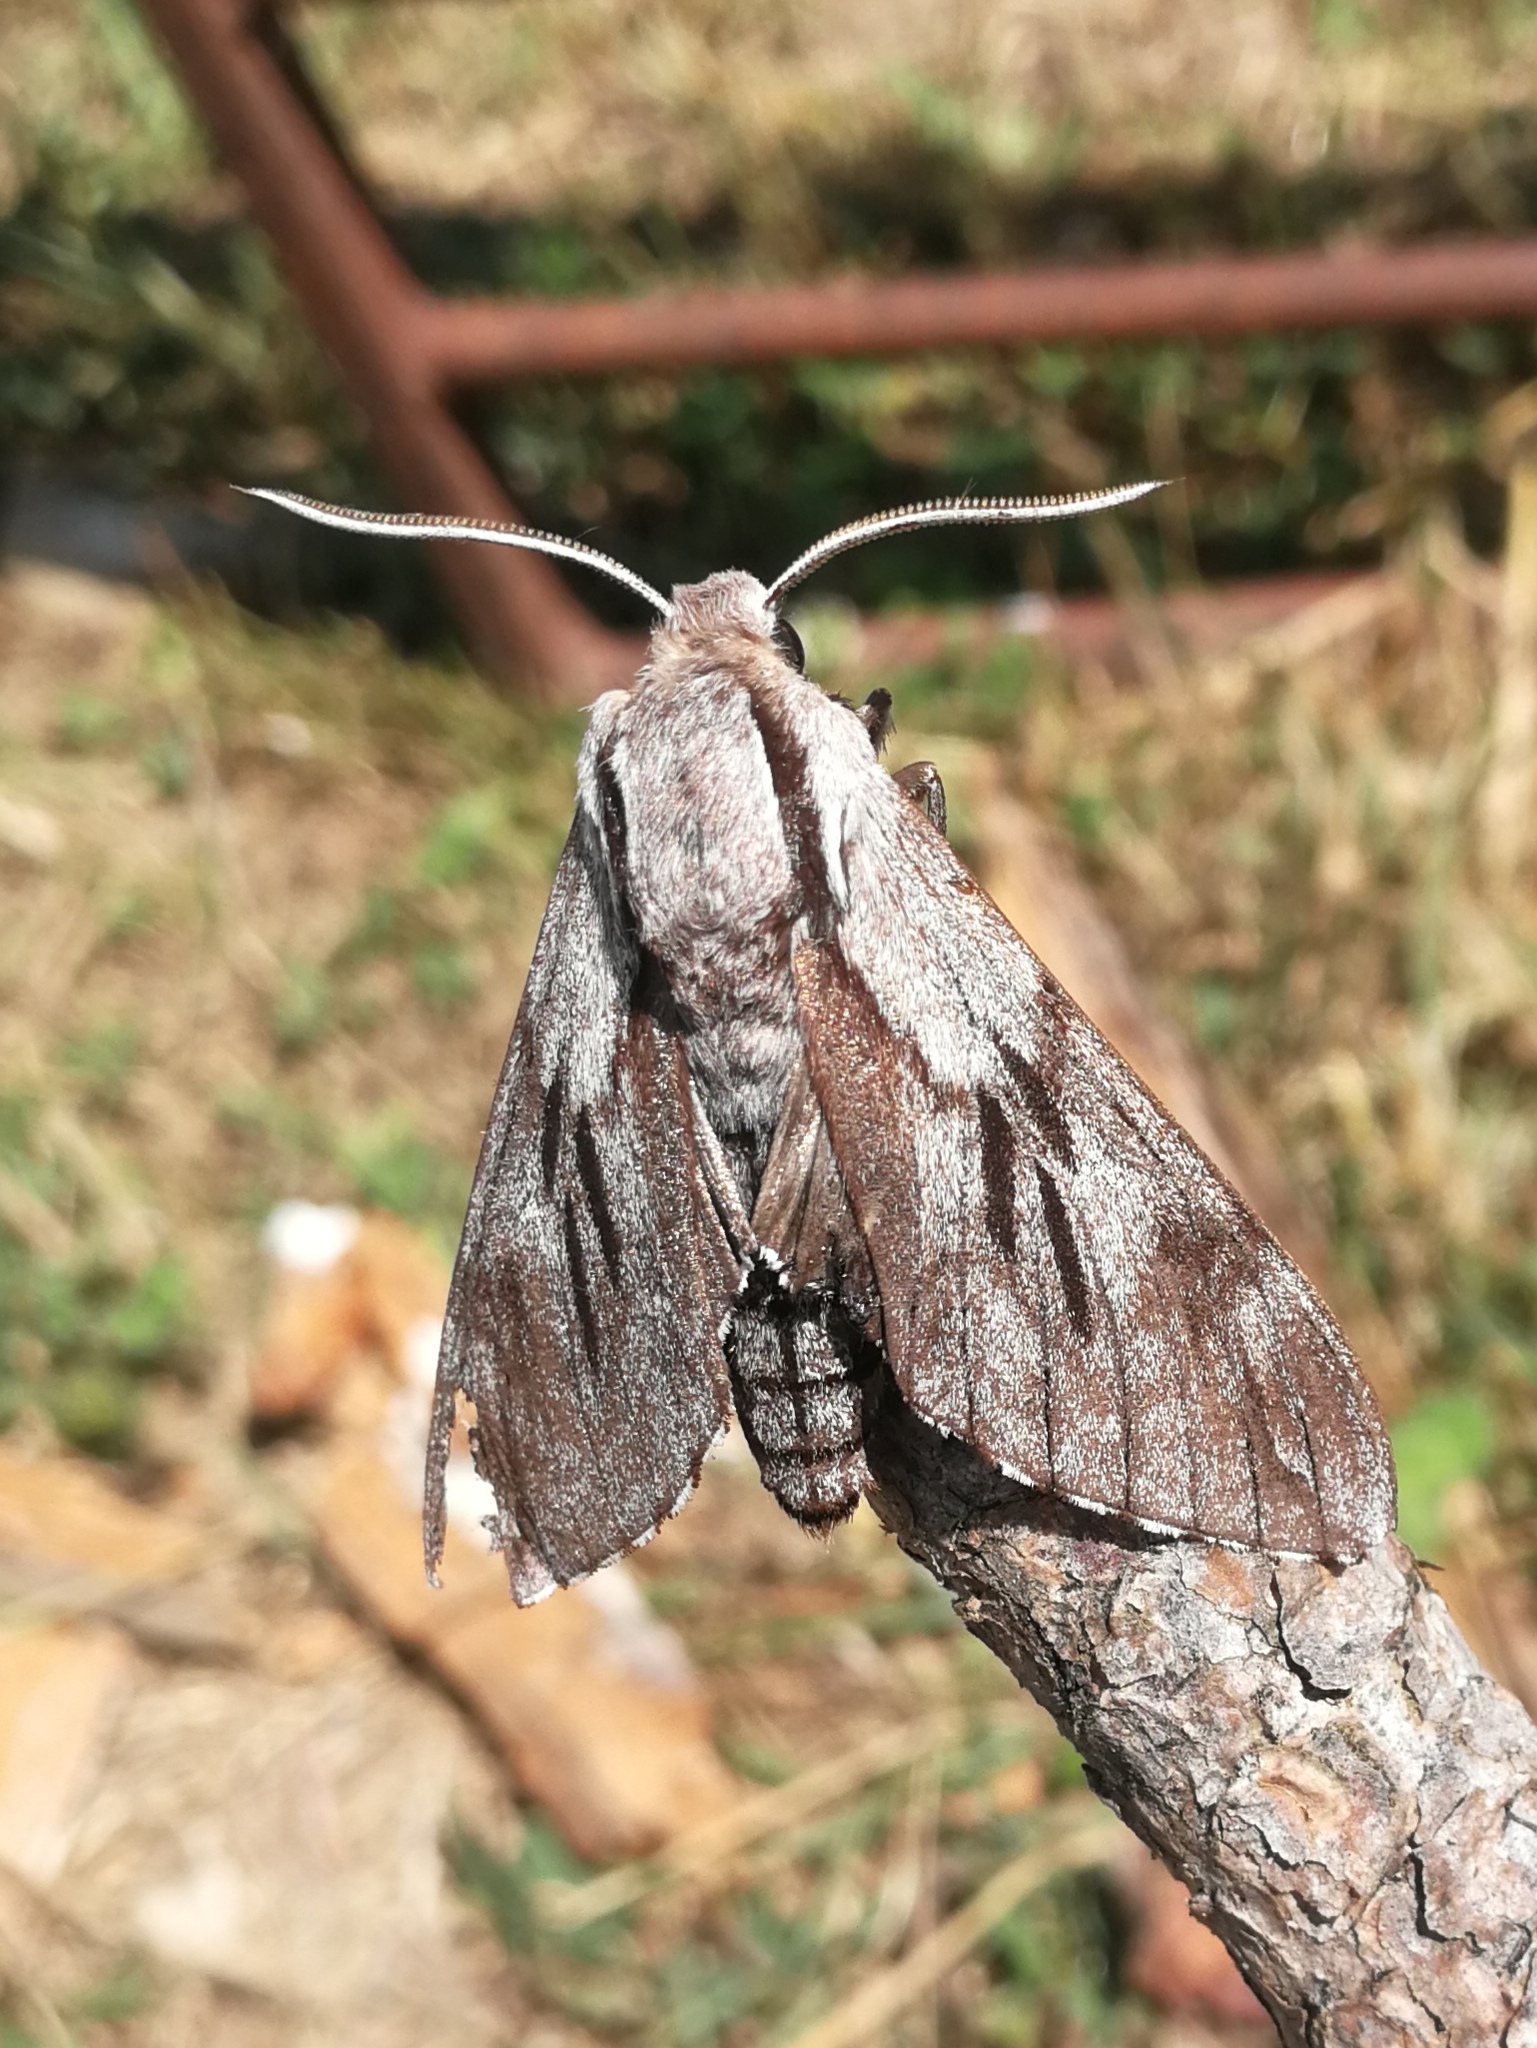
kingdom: Animalia
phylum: Arthropoda
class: Insecta
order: Lepidoptera
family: Sphingidae
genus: Sphinx
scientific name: Sphinx maurorum
